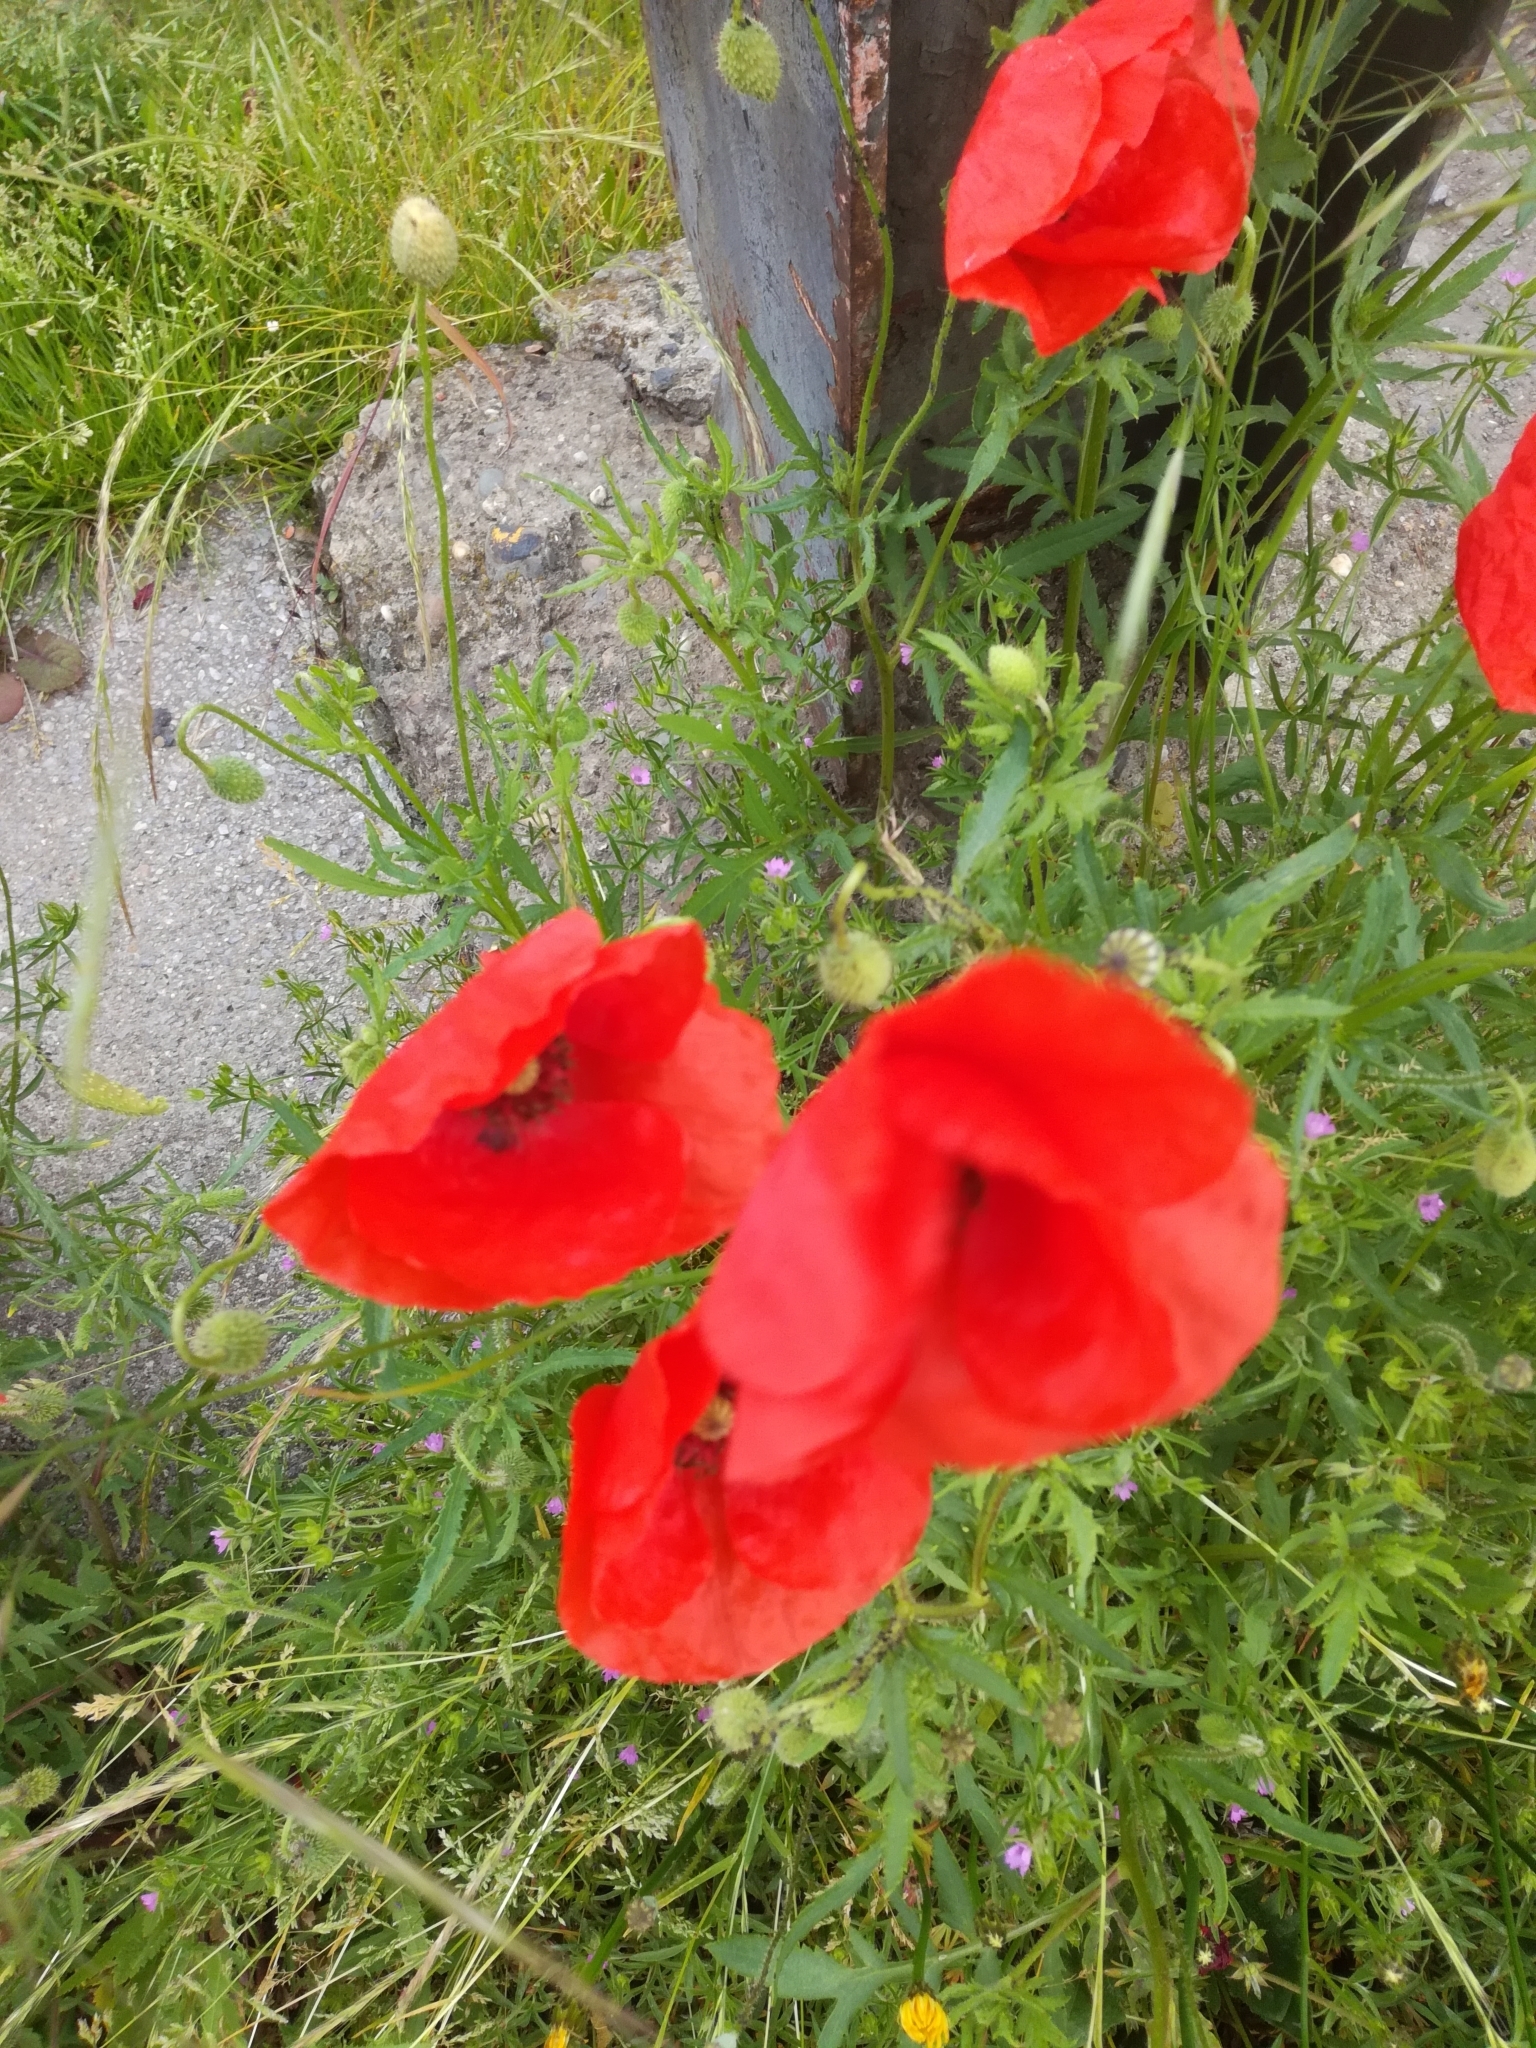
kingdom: Plantae
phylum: Tracheophyta
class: Magnoliopsida
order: Ranunculales
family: Papaveraceae
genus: Papaver
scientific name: Papaver rhoeas
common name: Corn poppy
